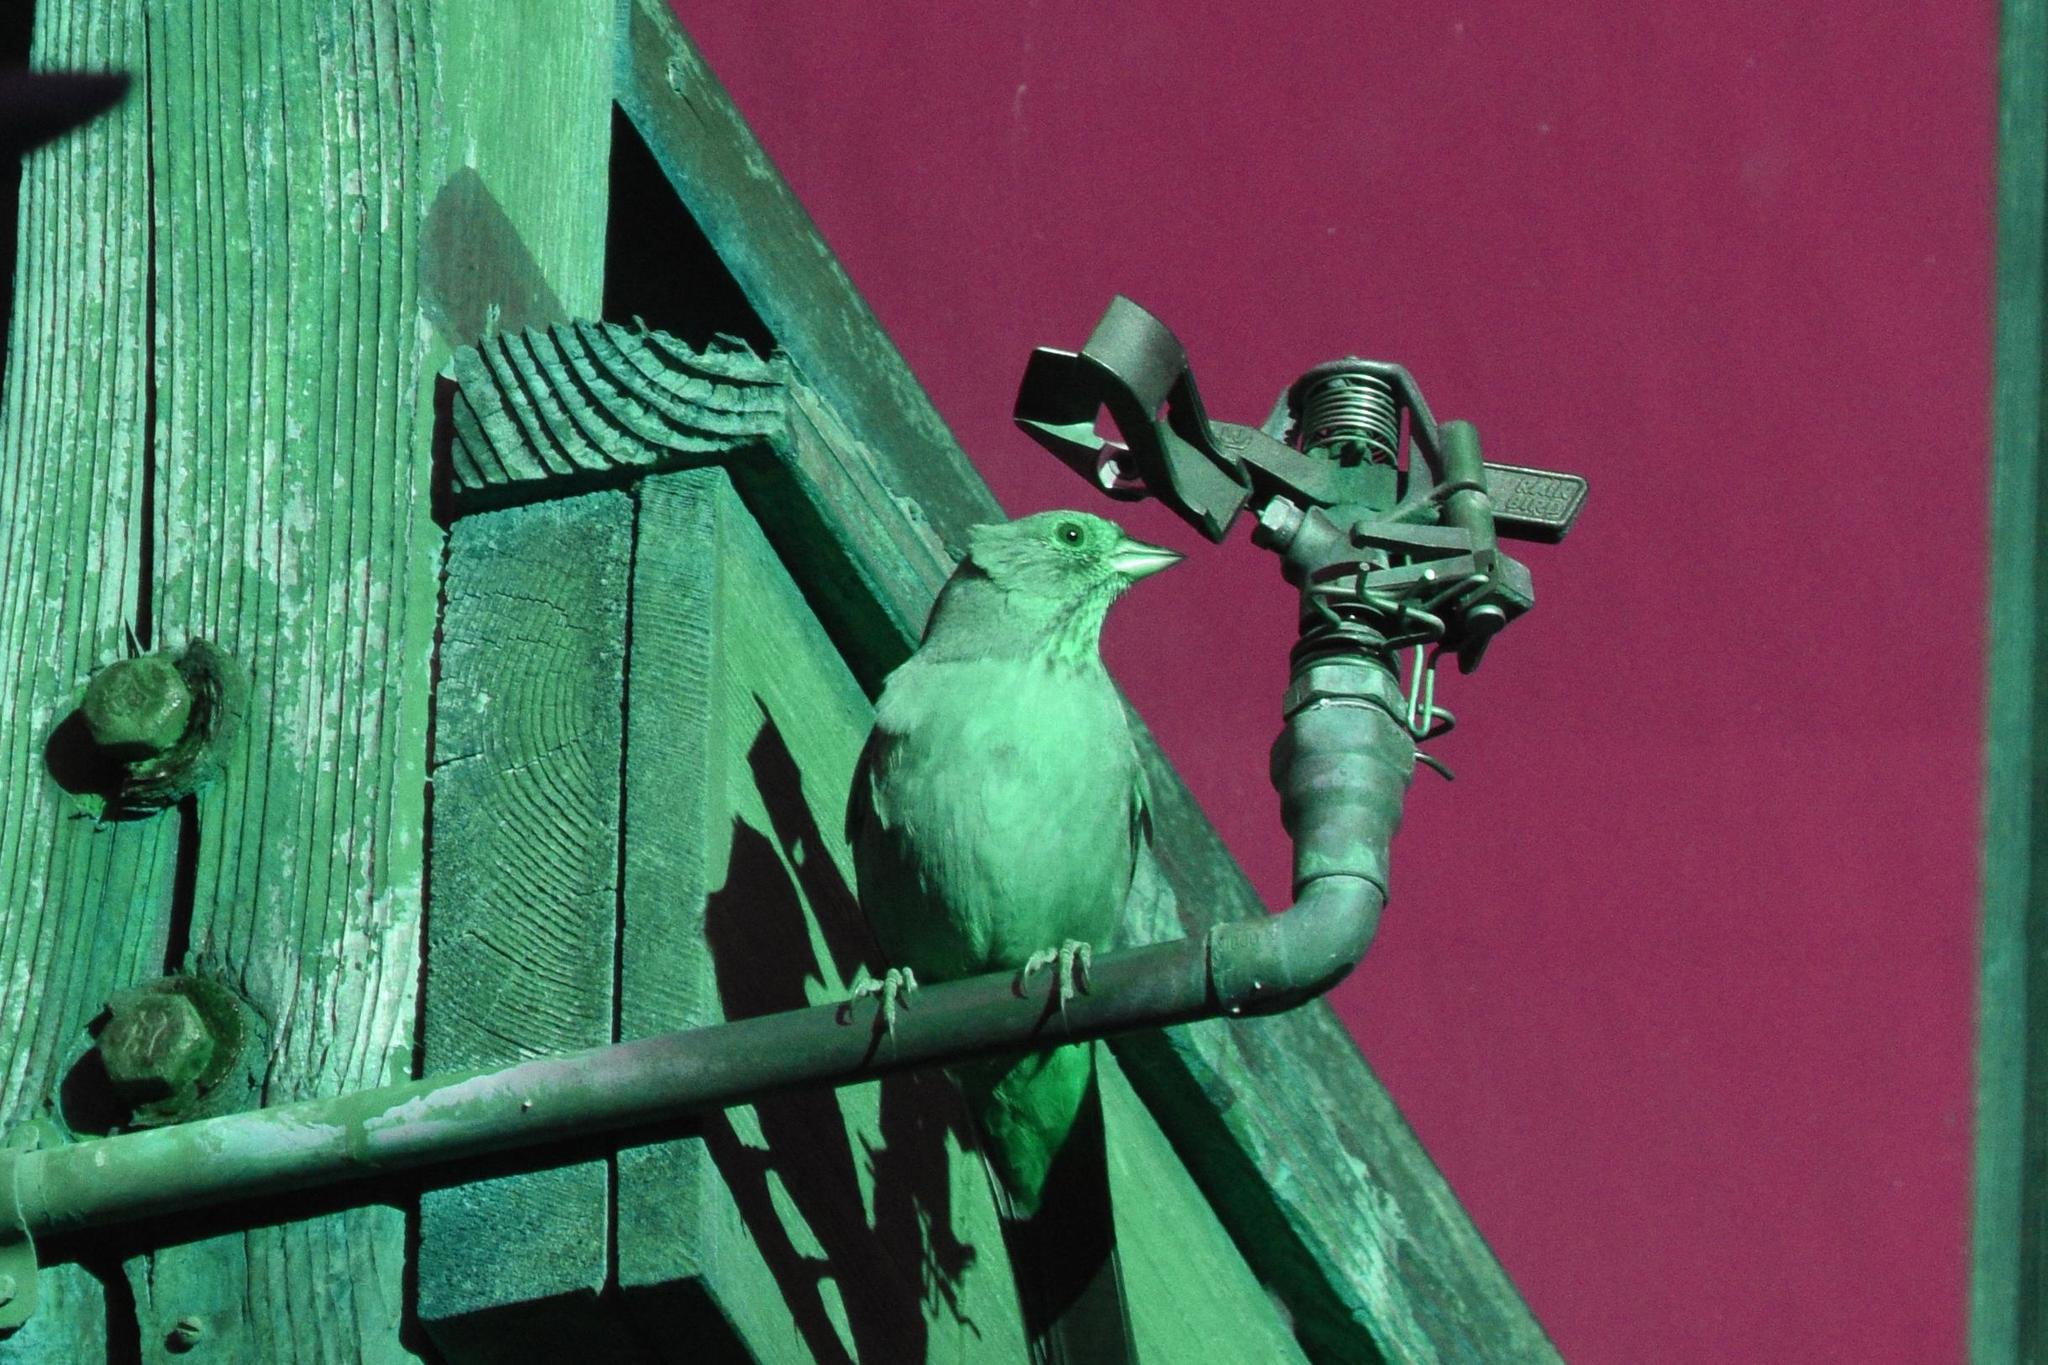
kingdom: Animalia
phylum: Chordata
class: Aves
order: Passeriformes
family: Passerellidae
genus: Melozone
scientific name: Melozone crissalis
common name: California towhee
